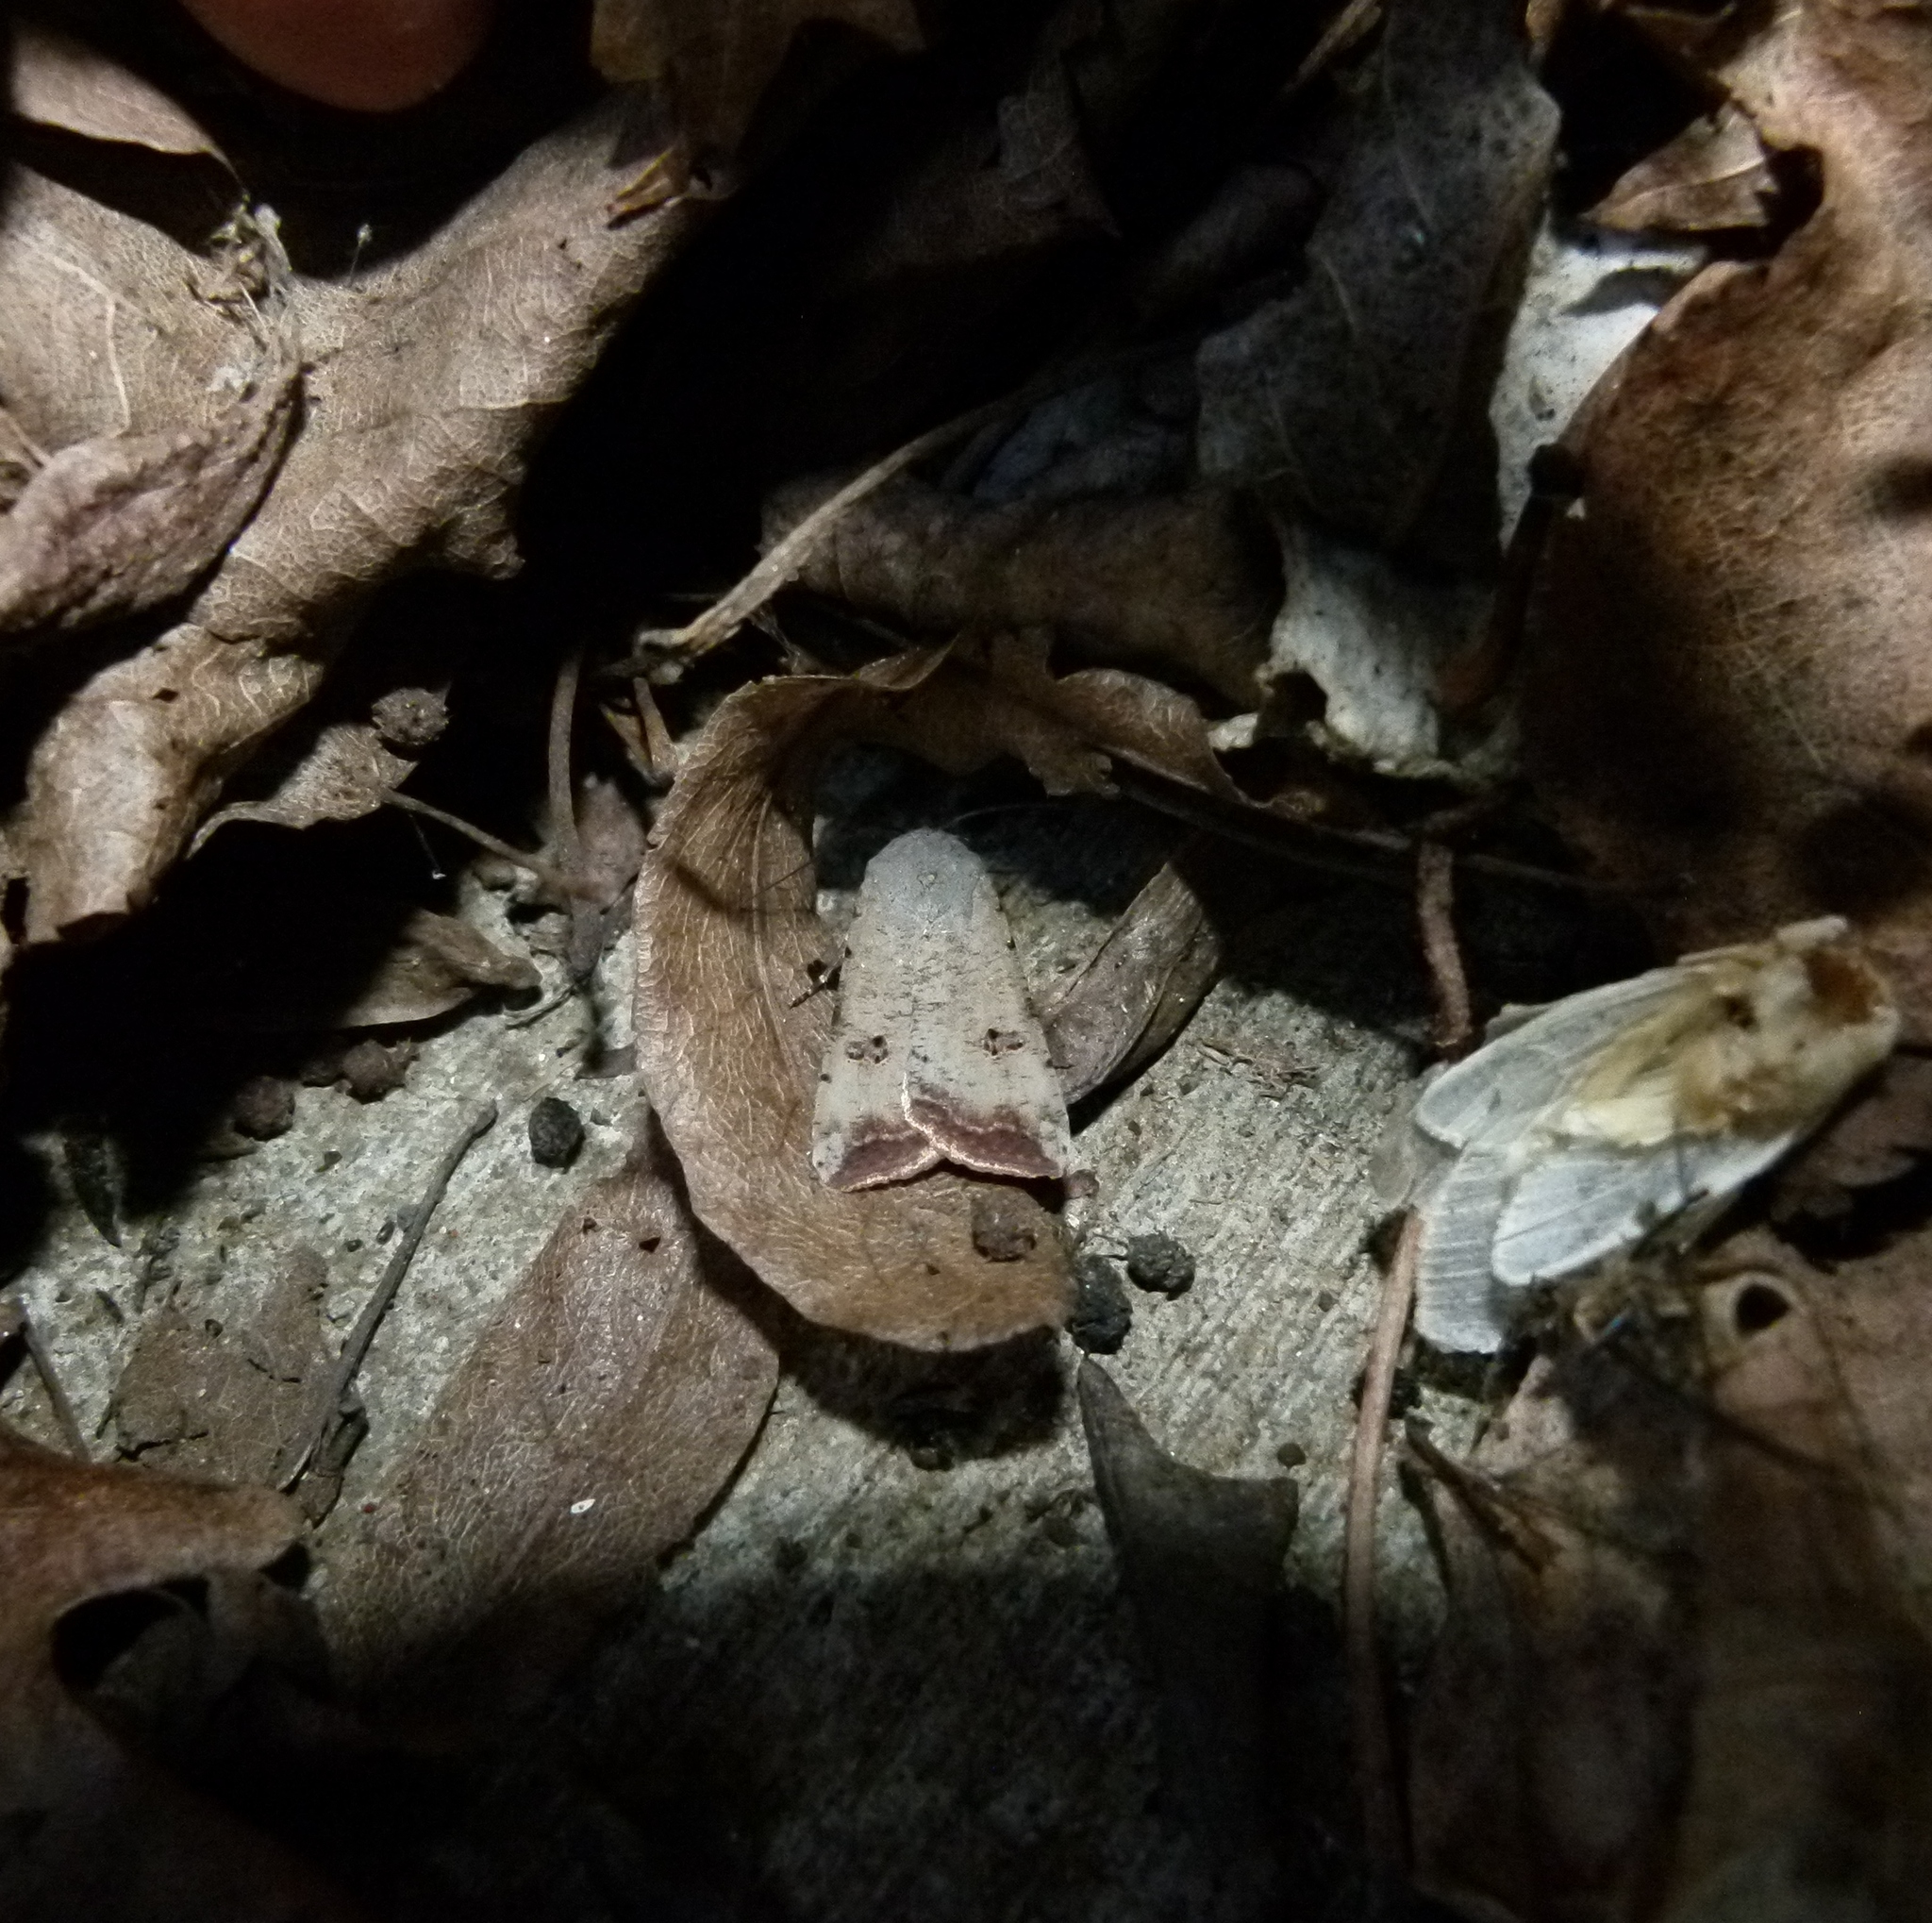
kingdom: Animalia
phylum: Arthropoda
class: Insecta
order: Lepidoptera
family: Noctuidae
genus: Anicla
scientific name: Anicla infecta
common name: Green cutworm
